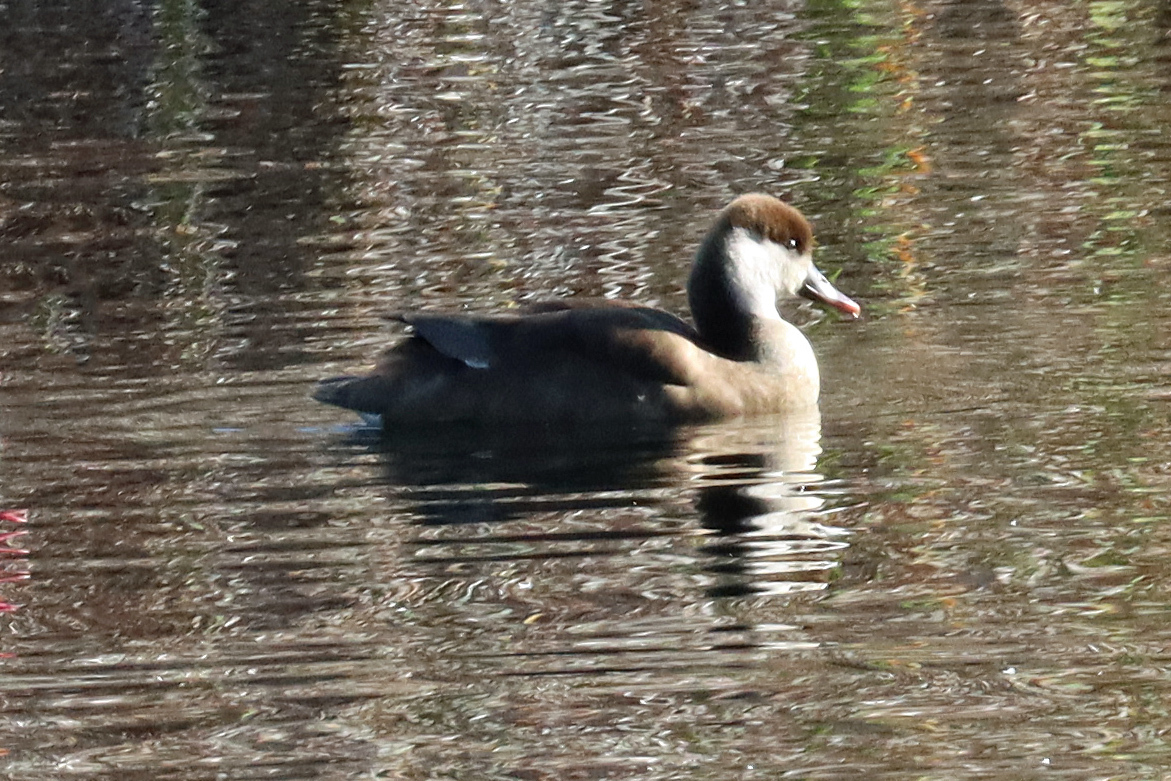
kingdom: Animalia
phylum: Chordata
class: Aves
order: Anseriformes
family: Anatidae
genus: Netta
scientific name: Netta rufina
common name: Red-crested pochard
